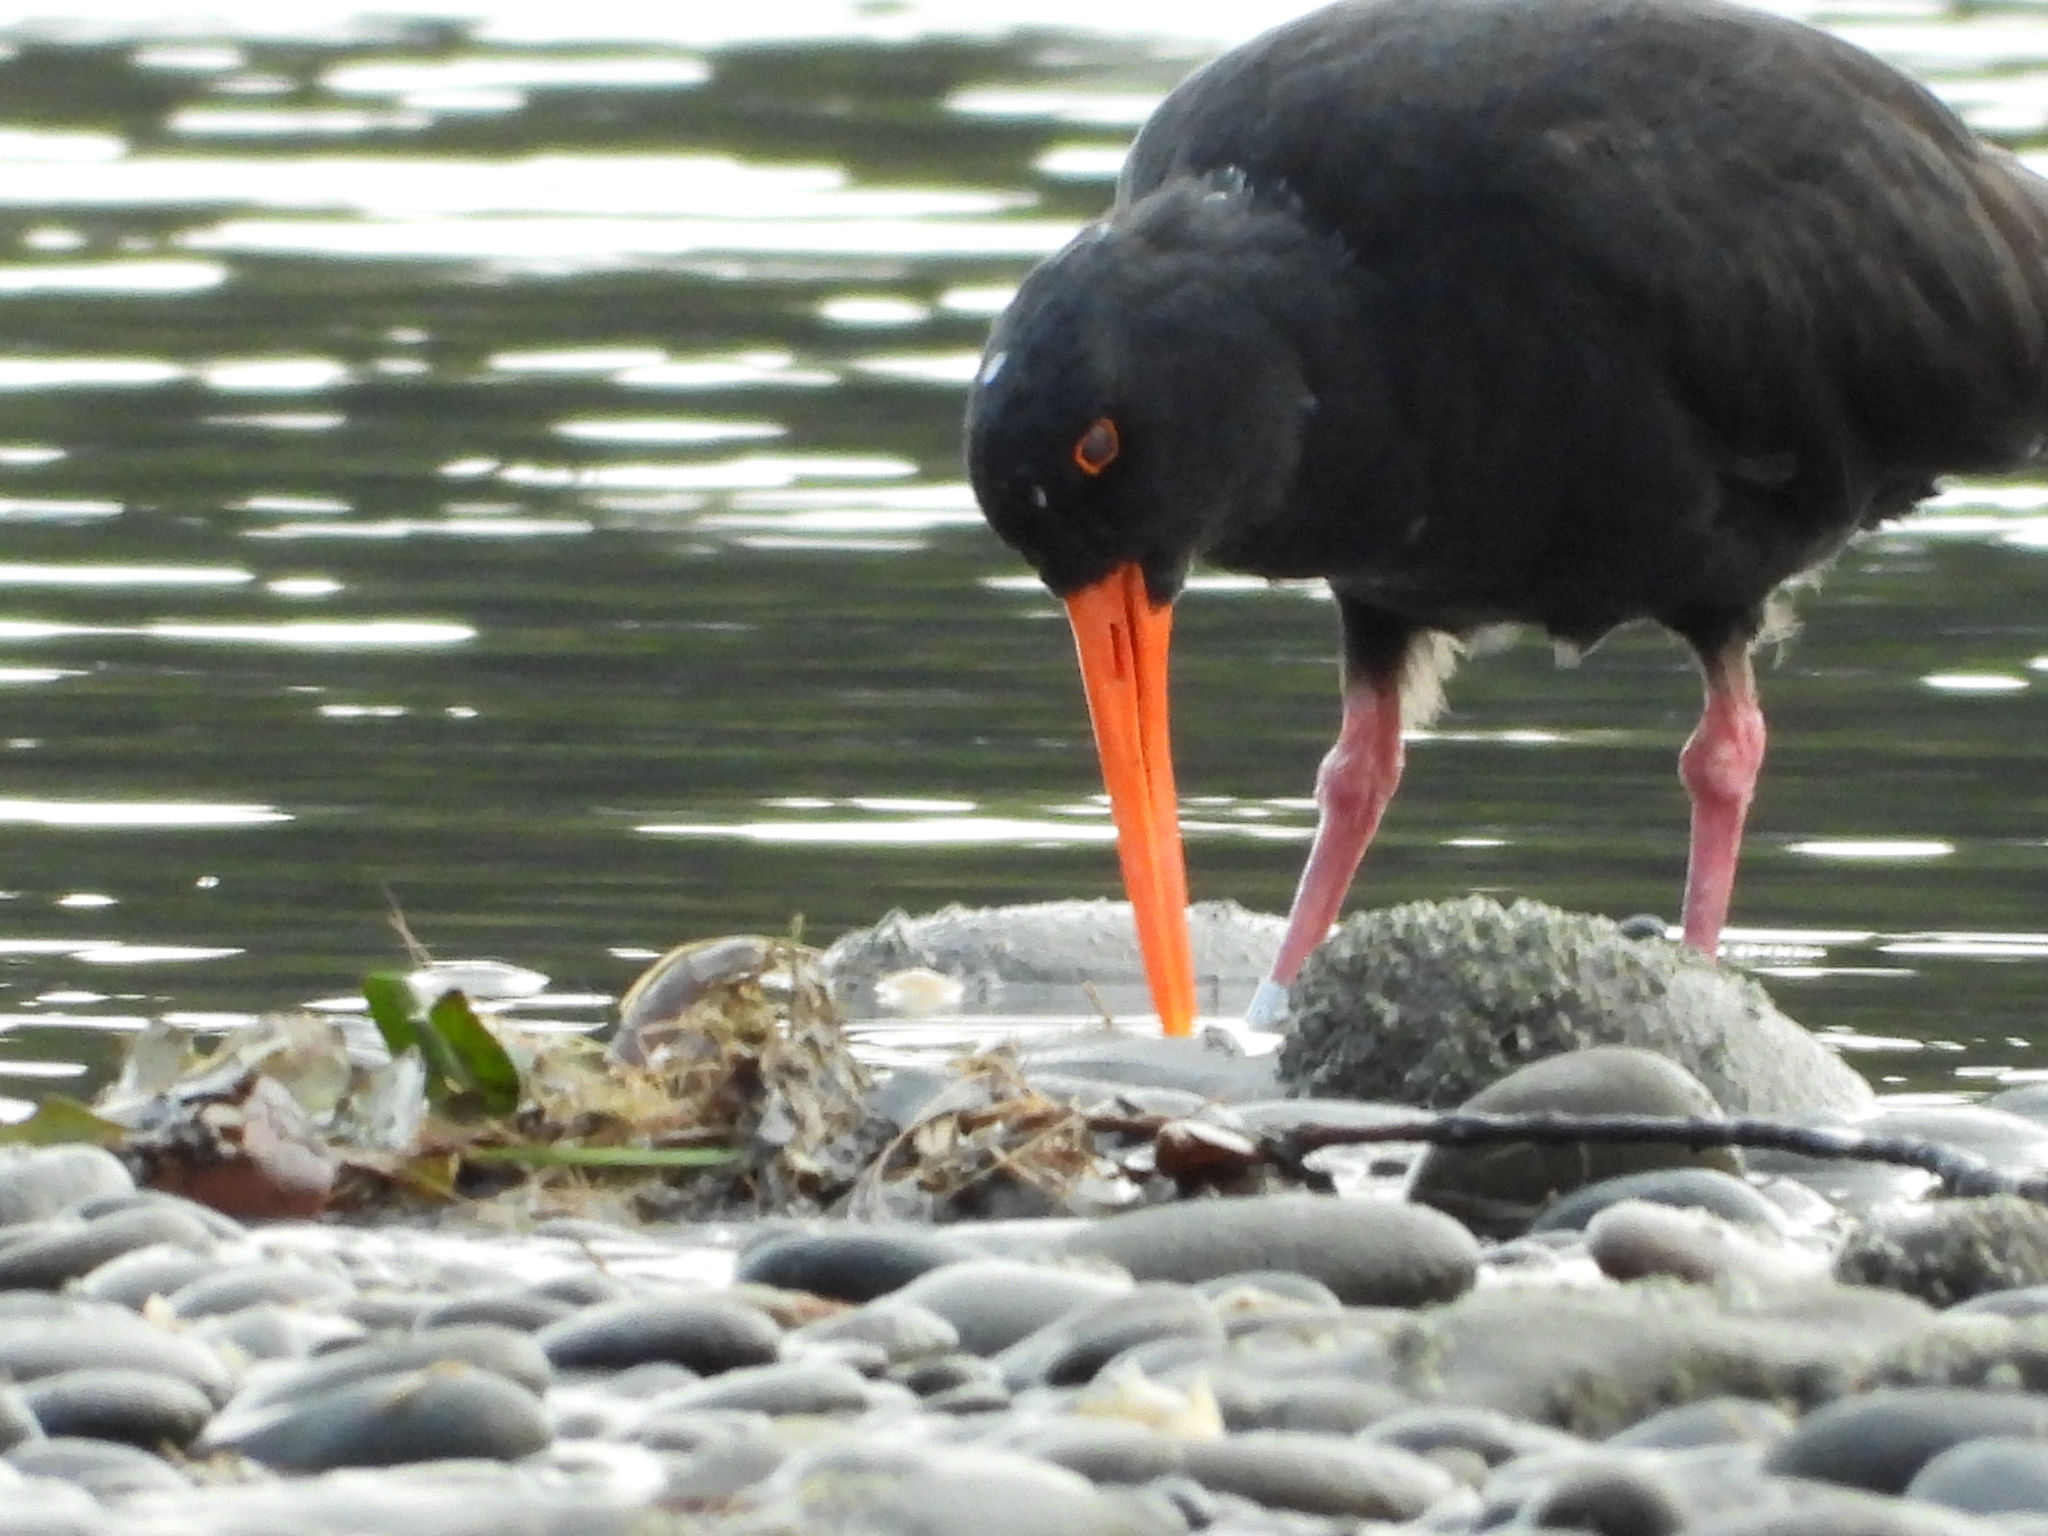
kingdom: Animalia
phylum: Chordata
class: Aves
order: Charadriiformes
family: Haematopodidae
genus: Haematopus
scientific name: Haematopus unicolor
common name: Variable oystercatcher
